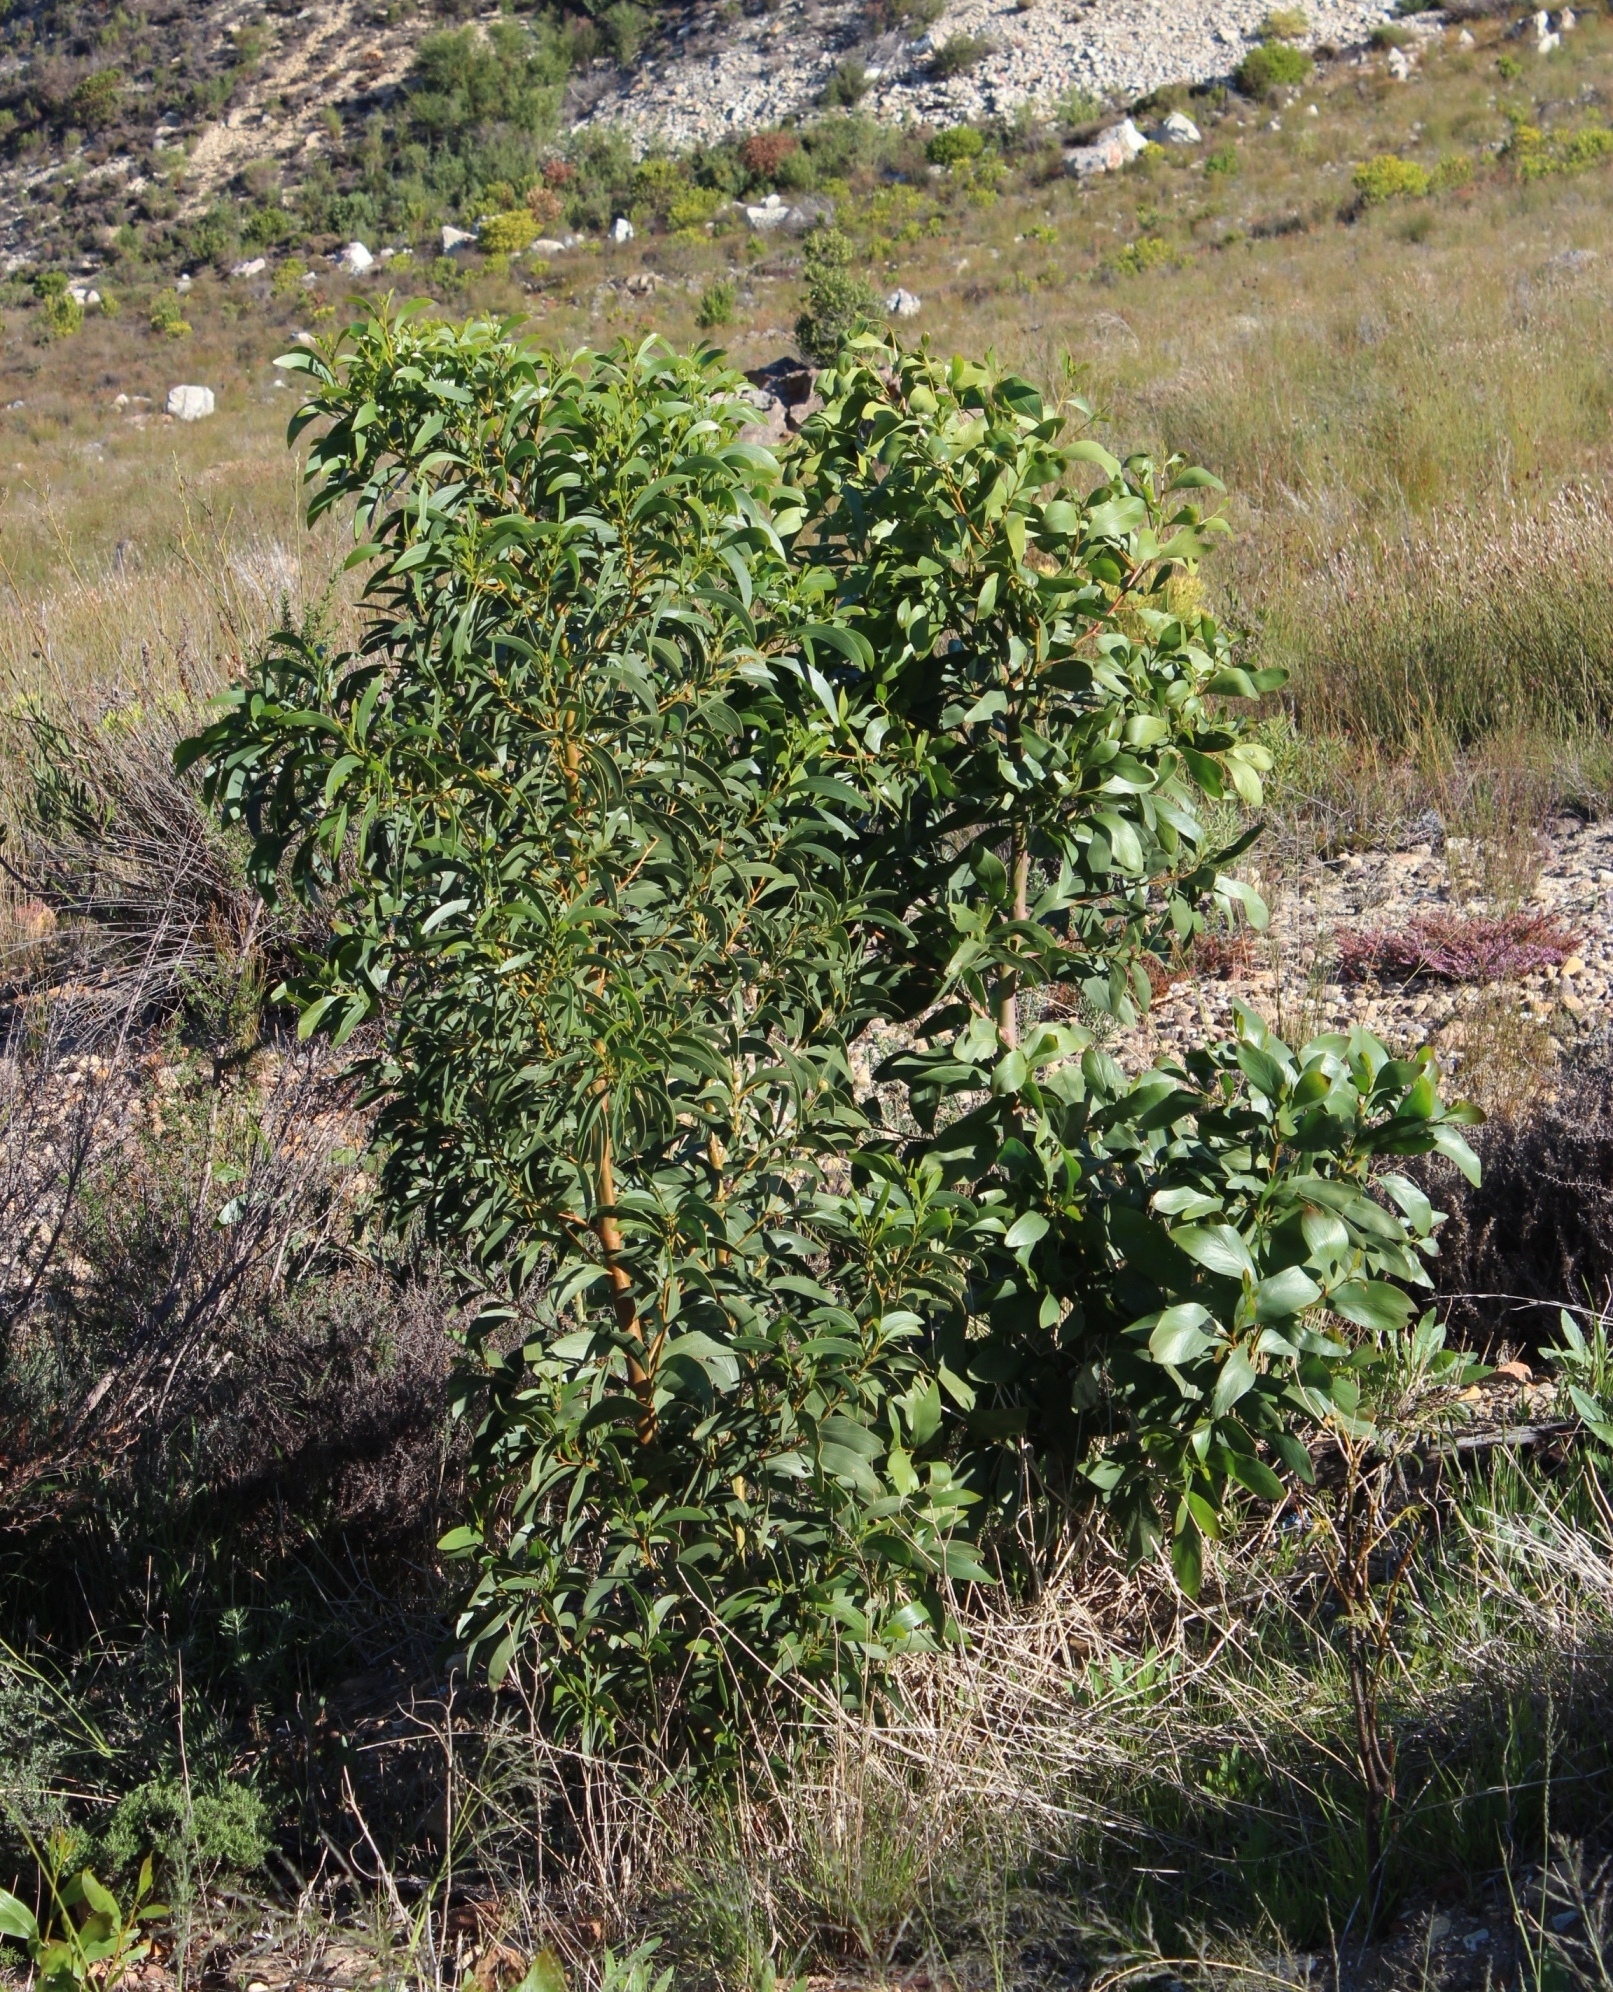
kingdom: Plantae
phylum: Tracheophyta
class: Magnoliopsida
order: Fabales
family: Fabaceae
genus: Acacia
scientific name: Acacia pycnantha
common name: Golden wattle
